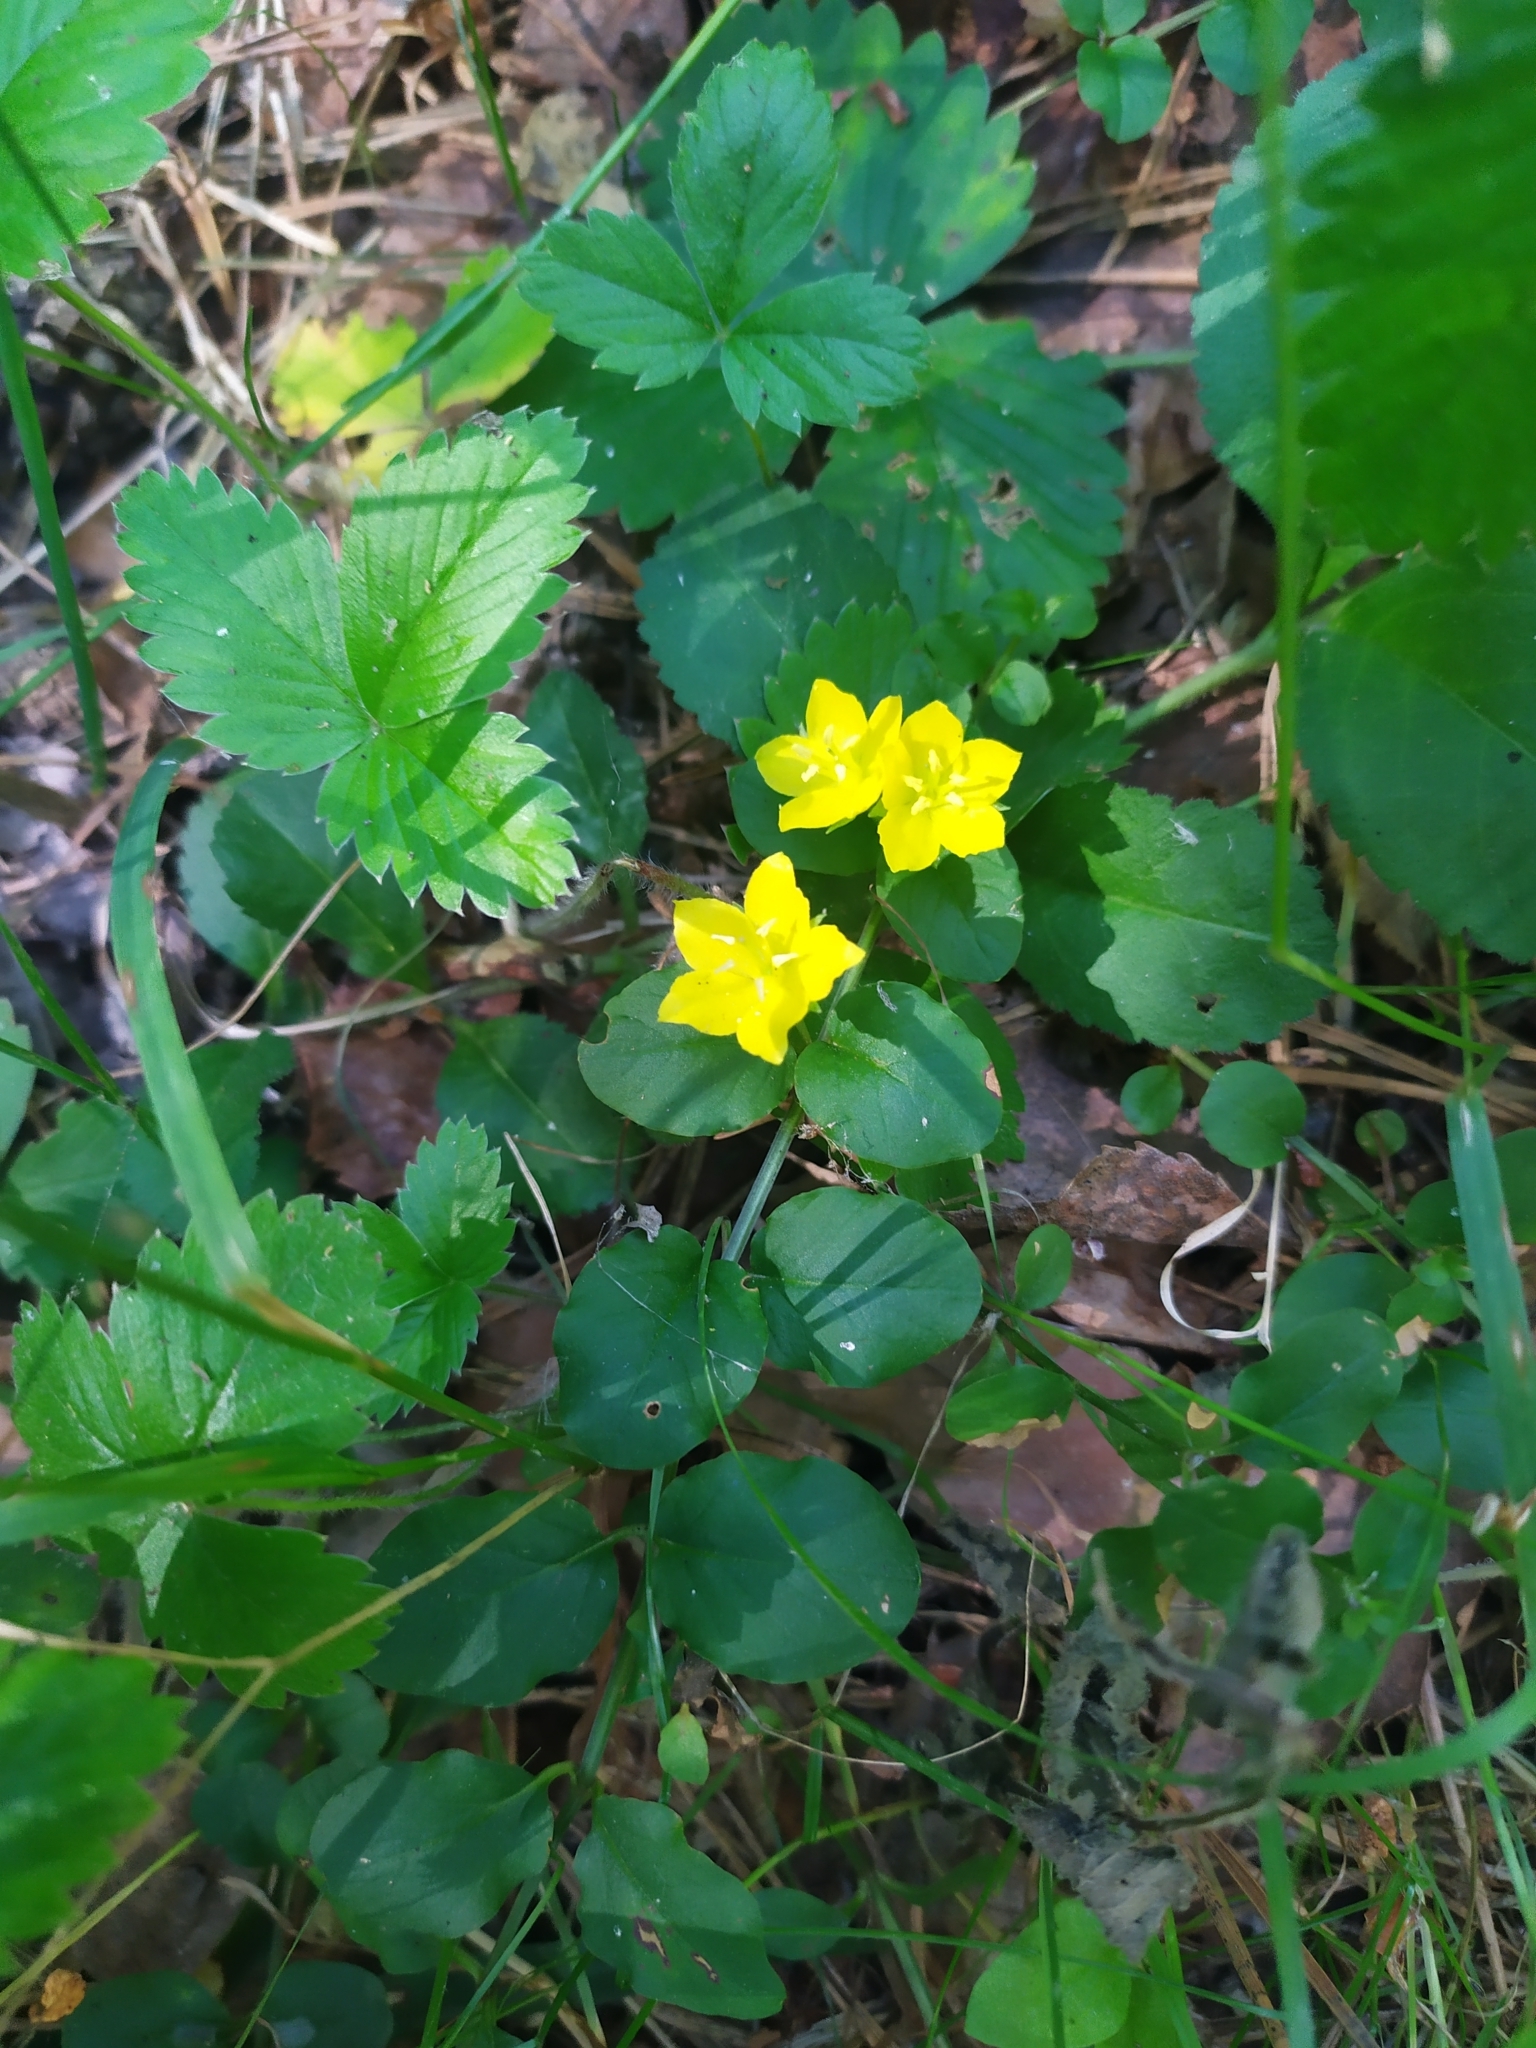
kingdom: Plantae
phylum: Tracheophyta
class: Magnoliopsida
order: Ericales
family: Primulaceae
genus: Lysimachia
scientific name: Lysimachia nummularia
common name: Moneywort
